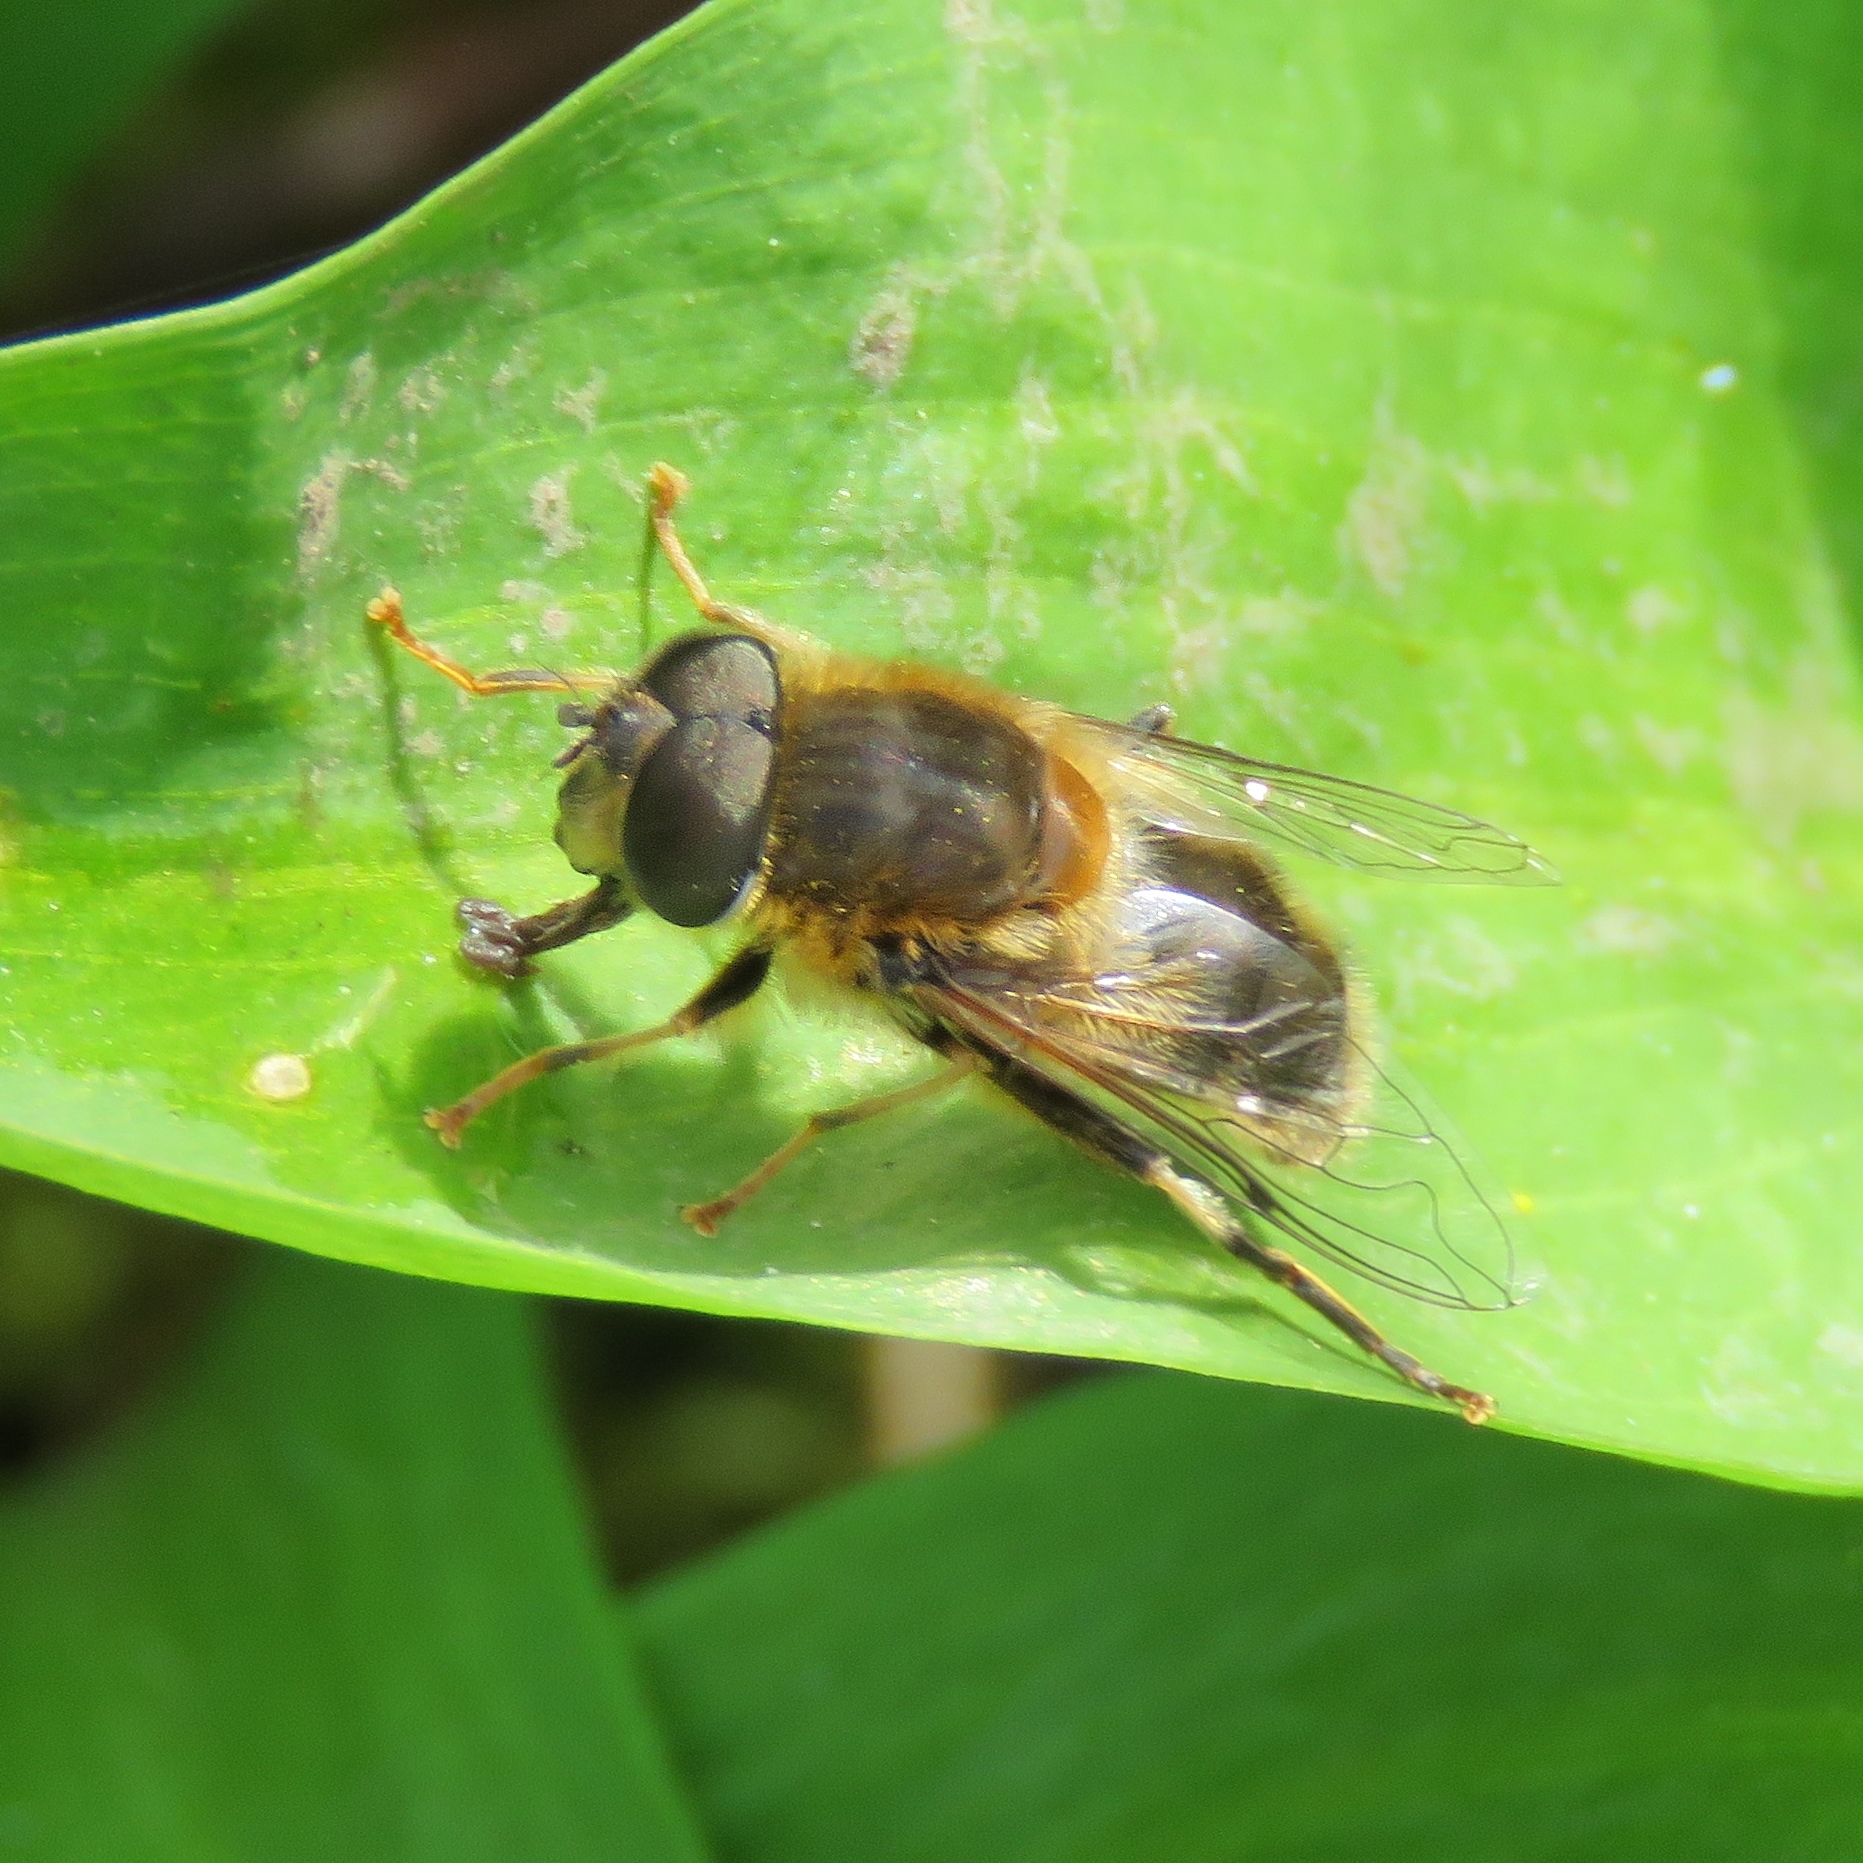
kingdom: Animalia
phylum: Arthropoda
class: Insecta
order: Diptera
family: Syrphidae
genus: Eristalis
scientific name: Eristalis pertinax
